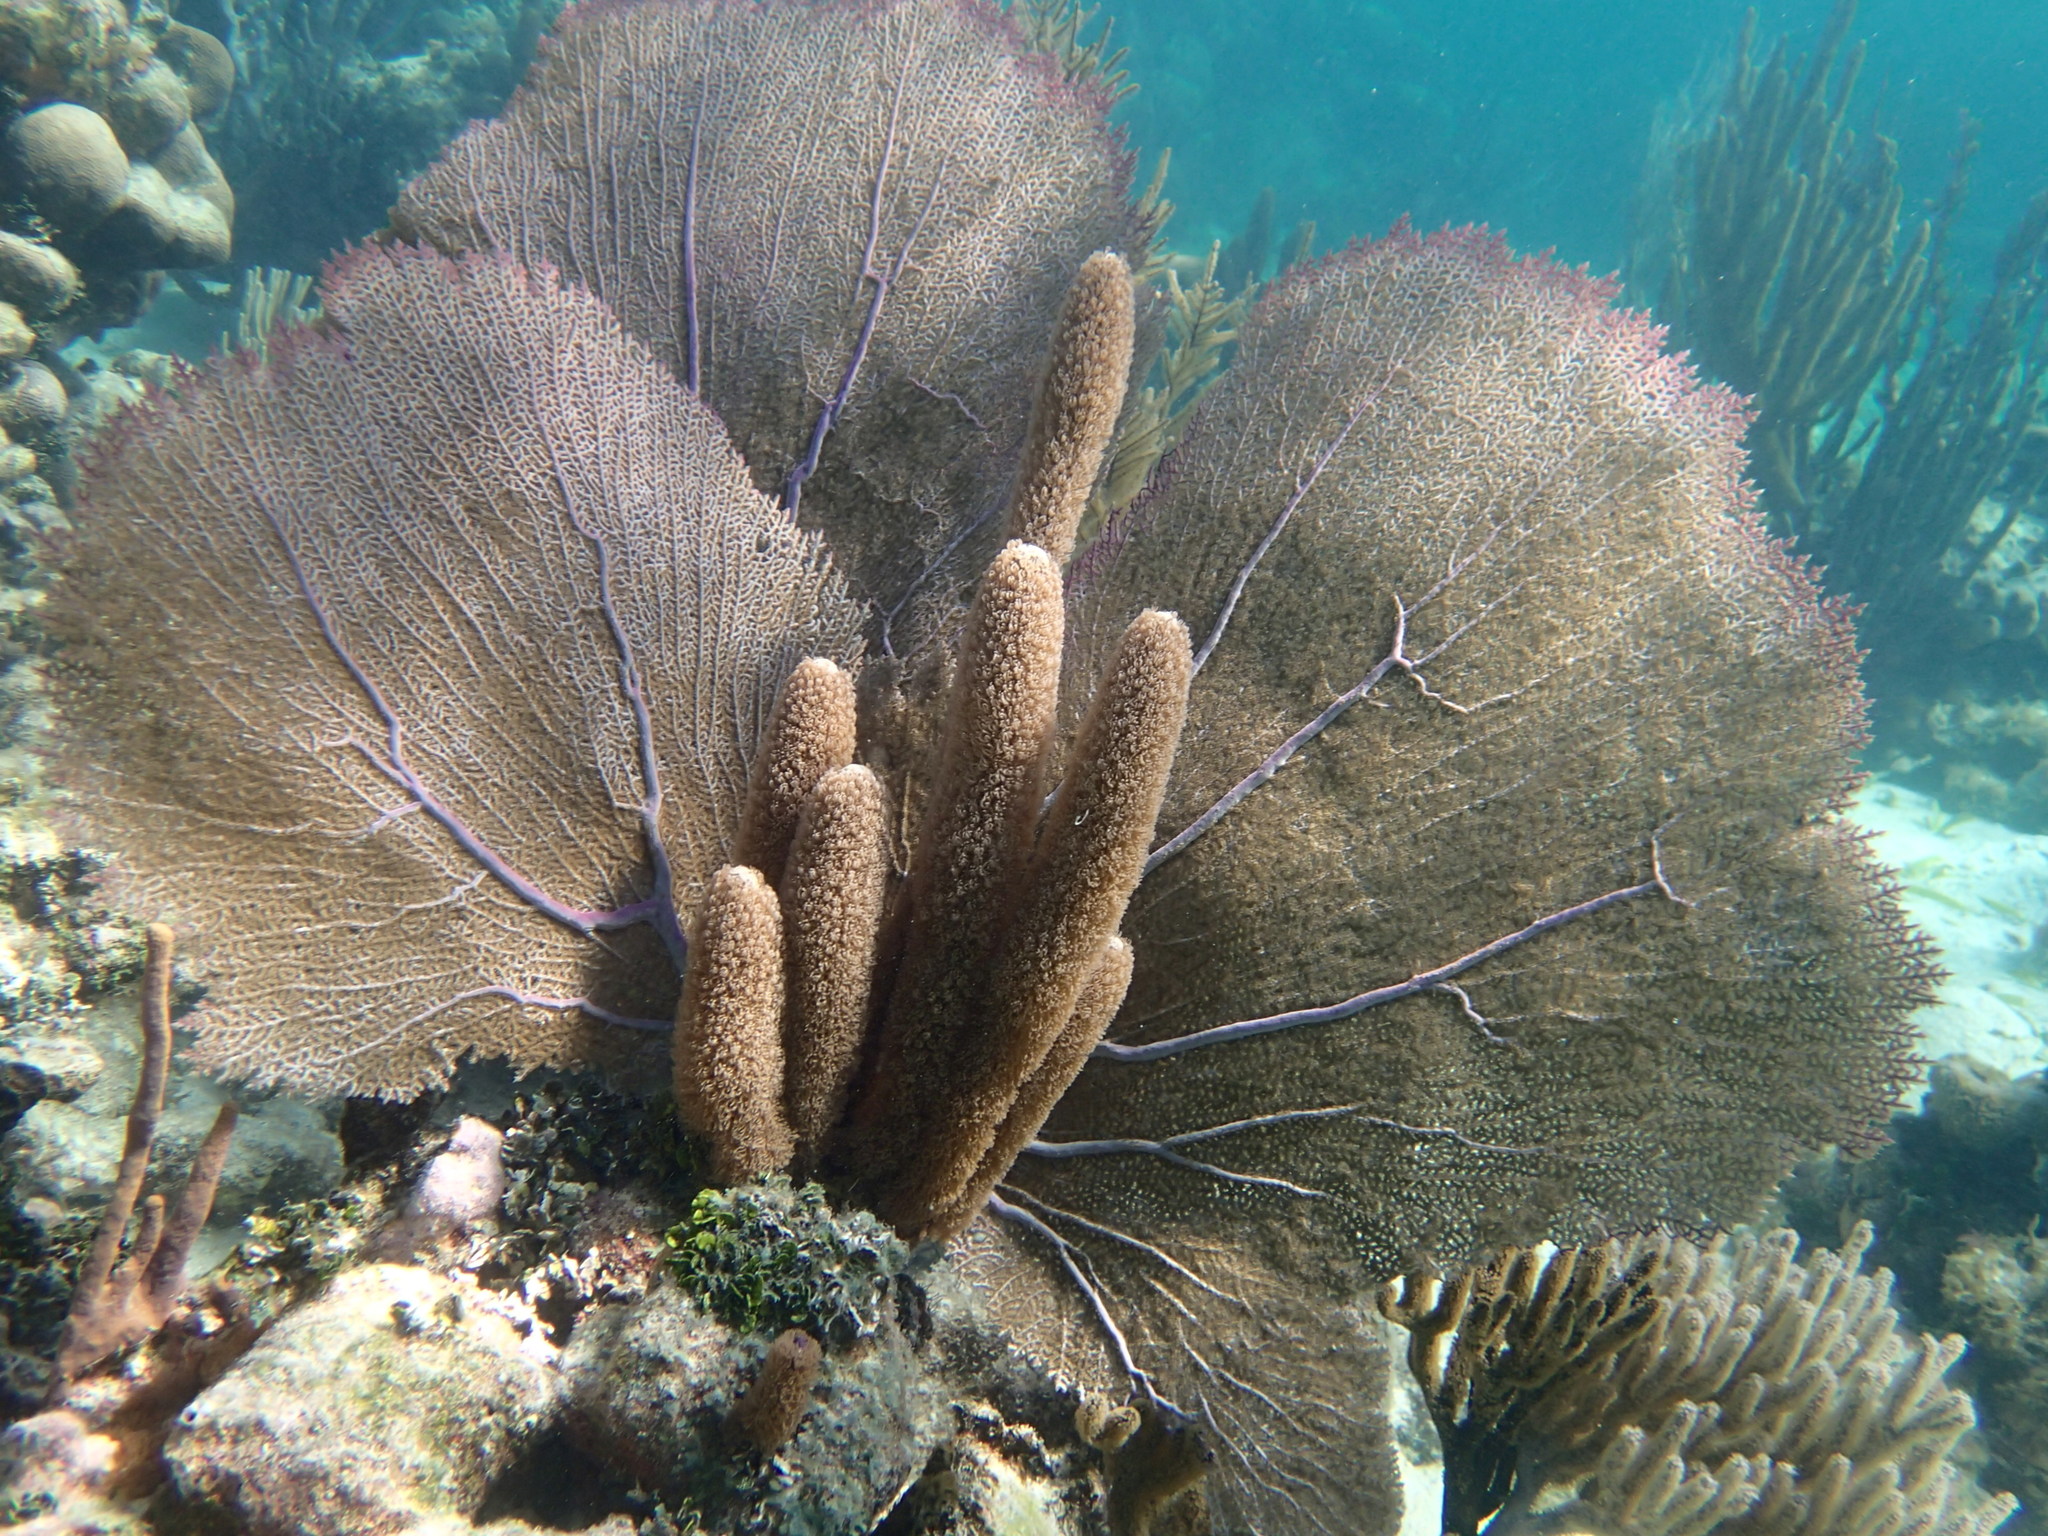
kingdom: Animalia
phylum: Cnidaria
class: Anthozoa
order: Scleralcyonacea
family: Briareidae
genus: Briareum
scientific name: Briareum asbestinum
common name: Corky sea finger
